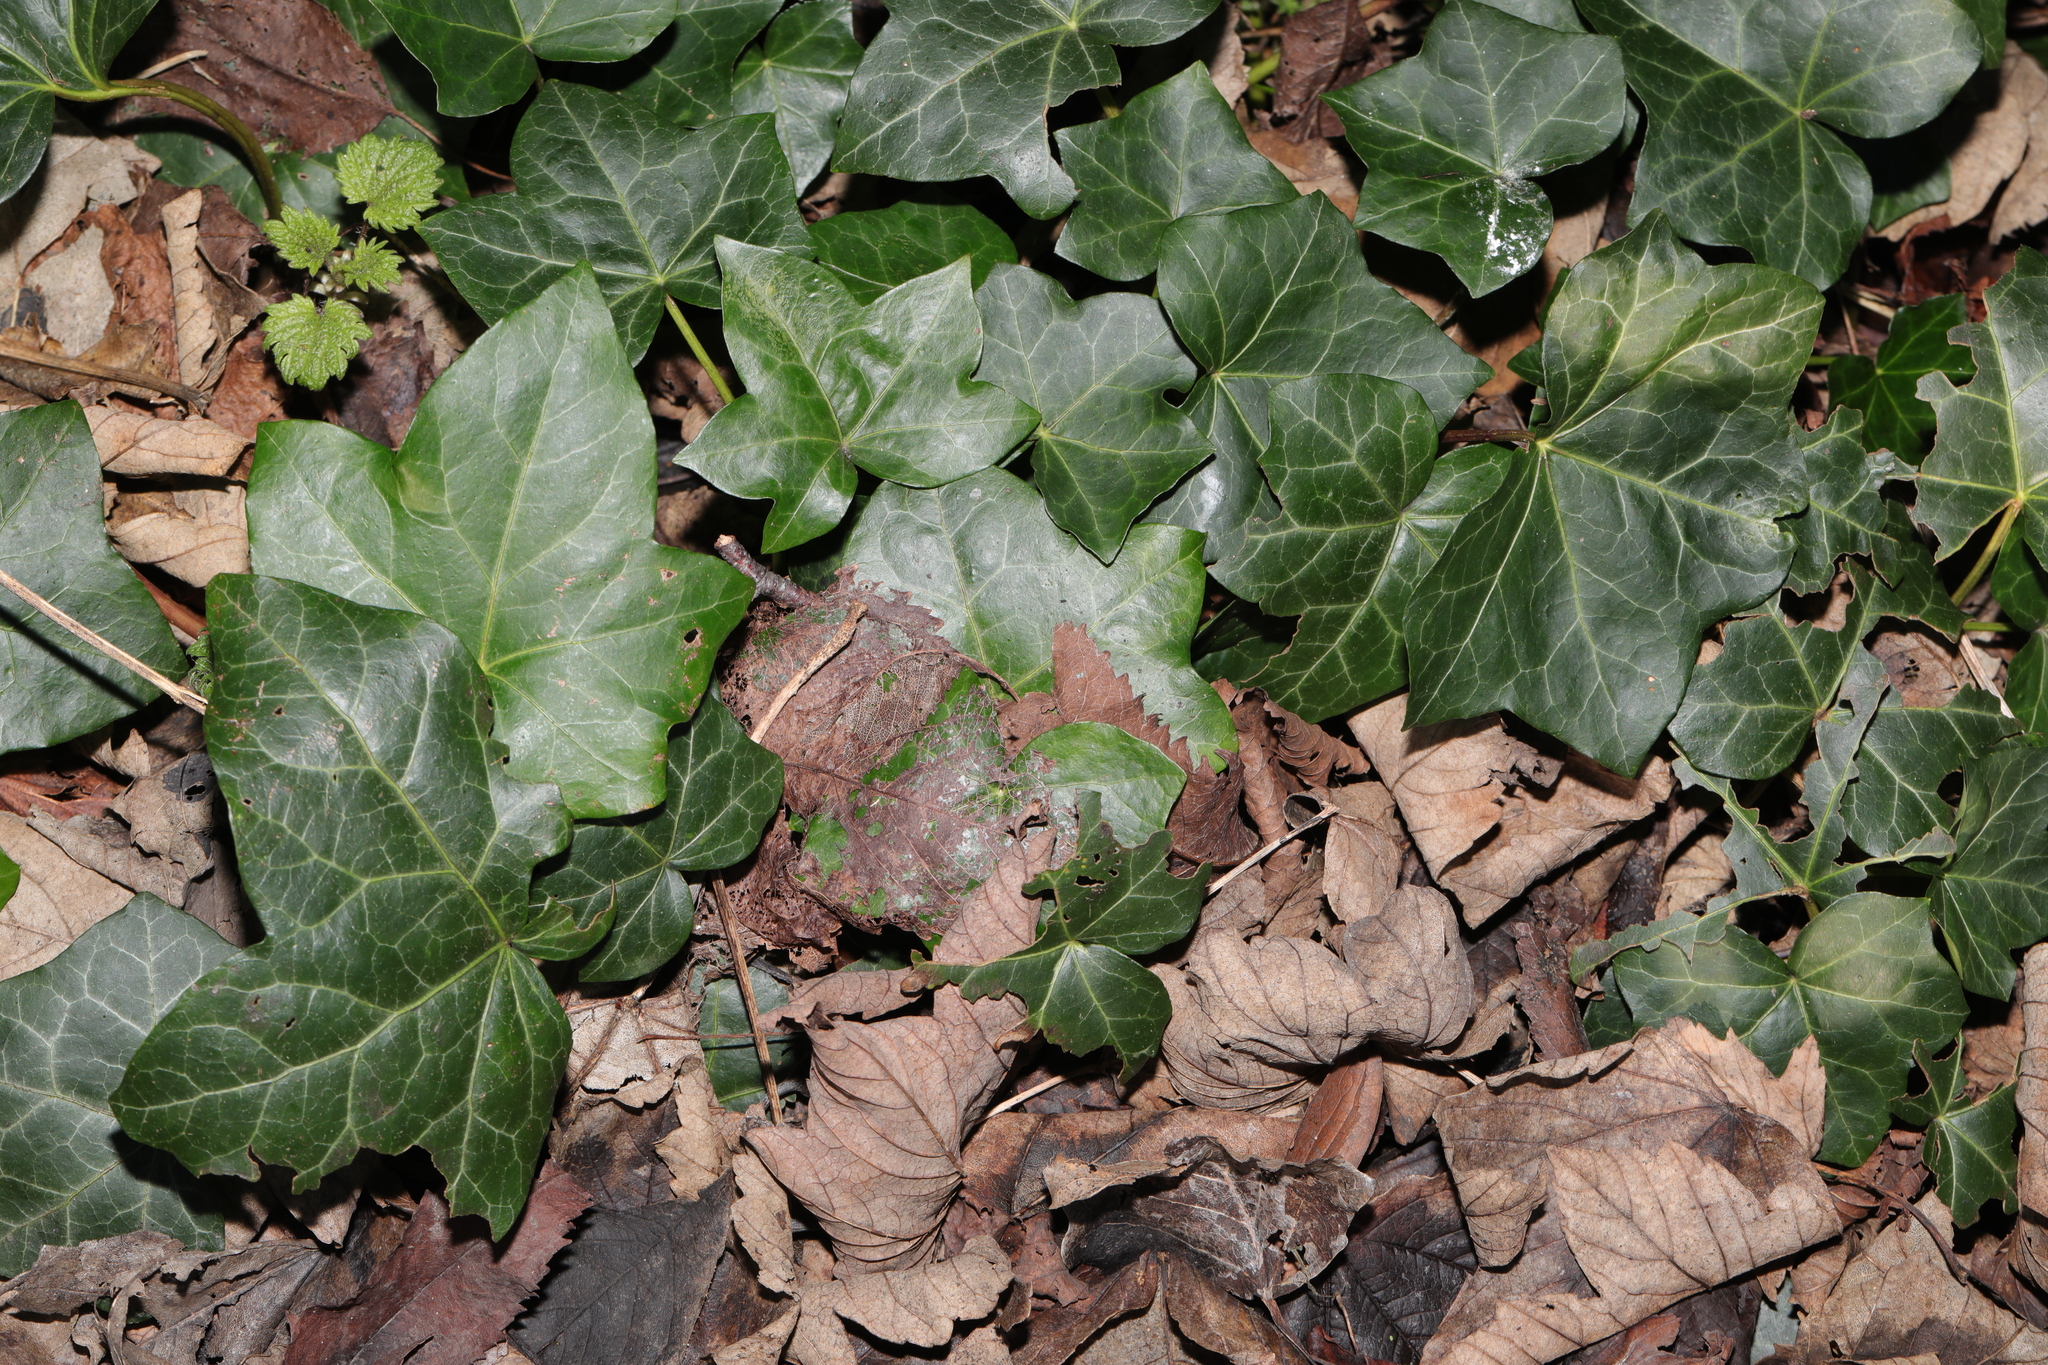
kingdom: Plantae
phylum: Tracheophyta
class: Magnoliopsida
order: Apiales
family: Araliaceae
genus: Hedera
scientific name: Hedera helix
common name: Ivy
